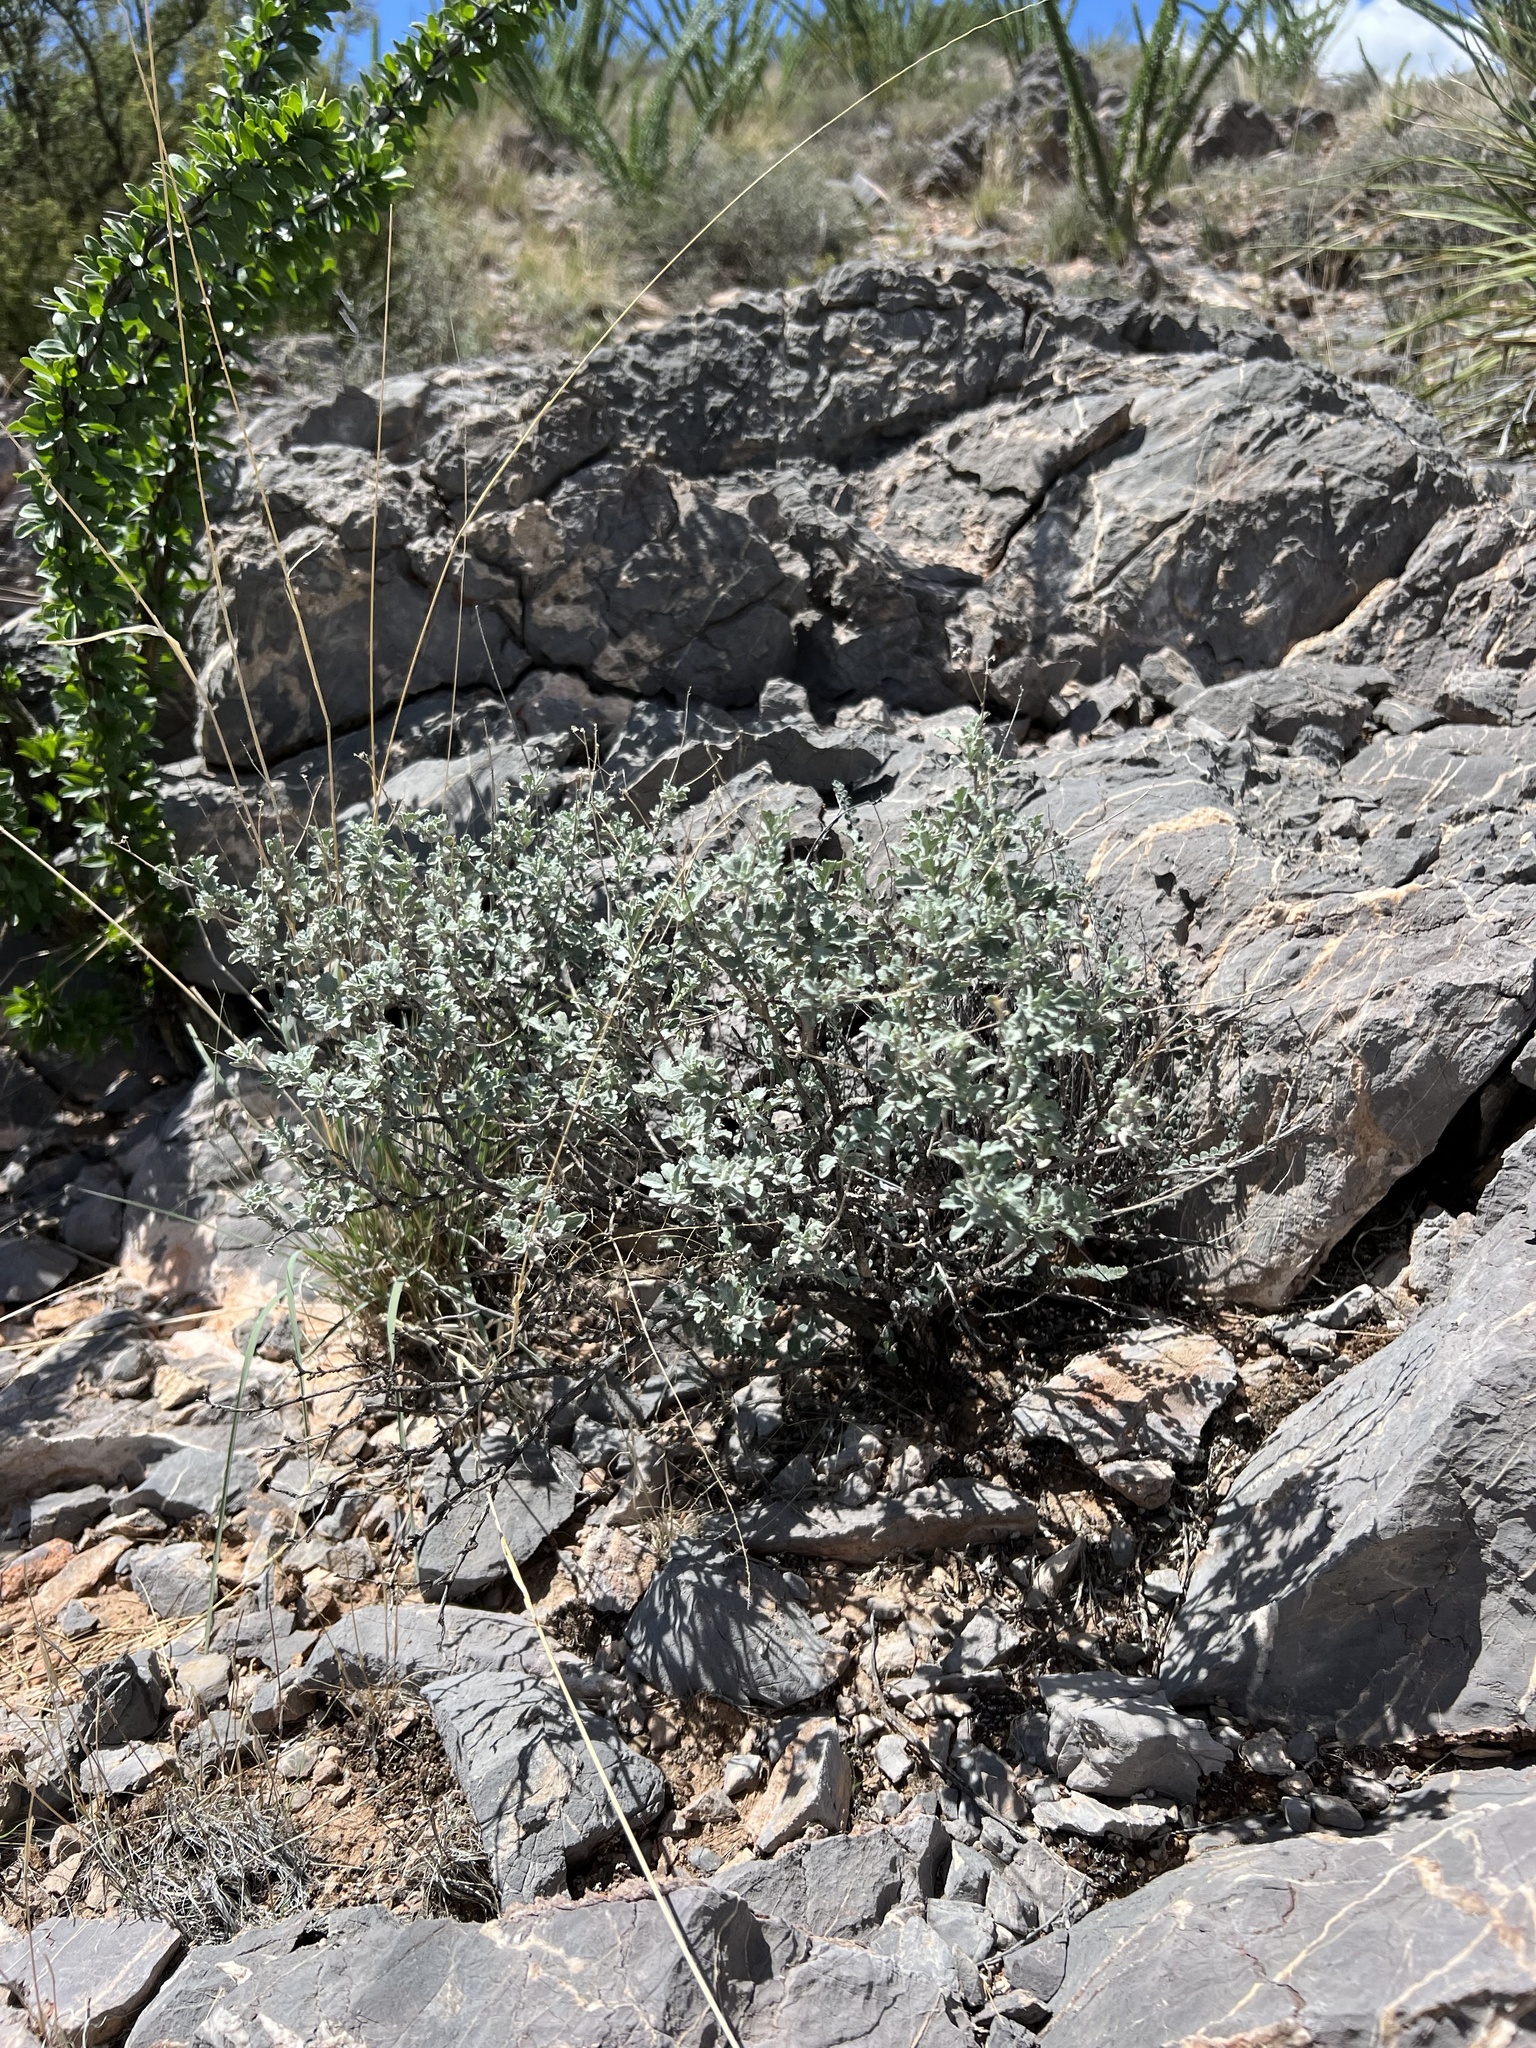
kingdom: Plantae
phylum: Tracheophyta
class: Magnoliopsida
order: Asterales
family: Asteraceae
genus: Parthenium
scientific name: Parthenium incanum
